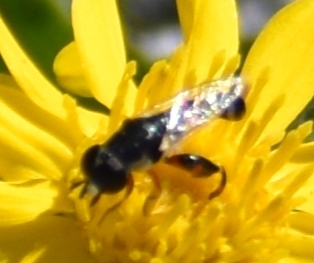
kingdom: Animalia
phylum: Arthropoda
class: Insecta
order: Diptera
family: Syrphidae
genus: Syritta
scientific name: Syritta flaviventris
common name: Syrphid fly
